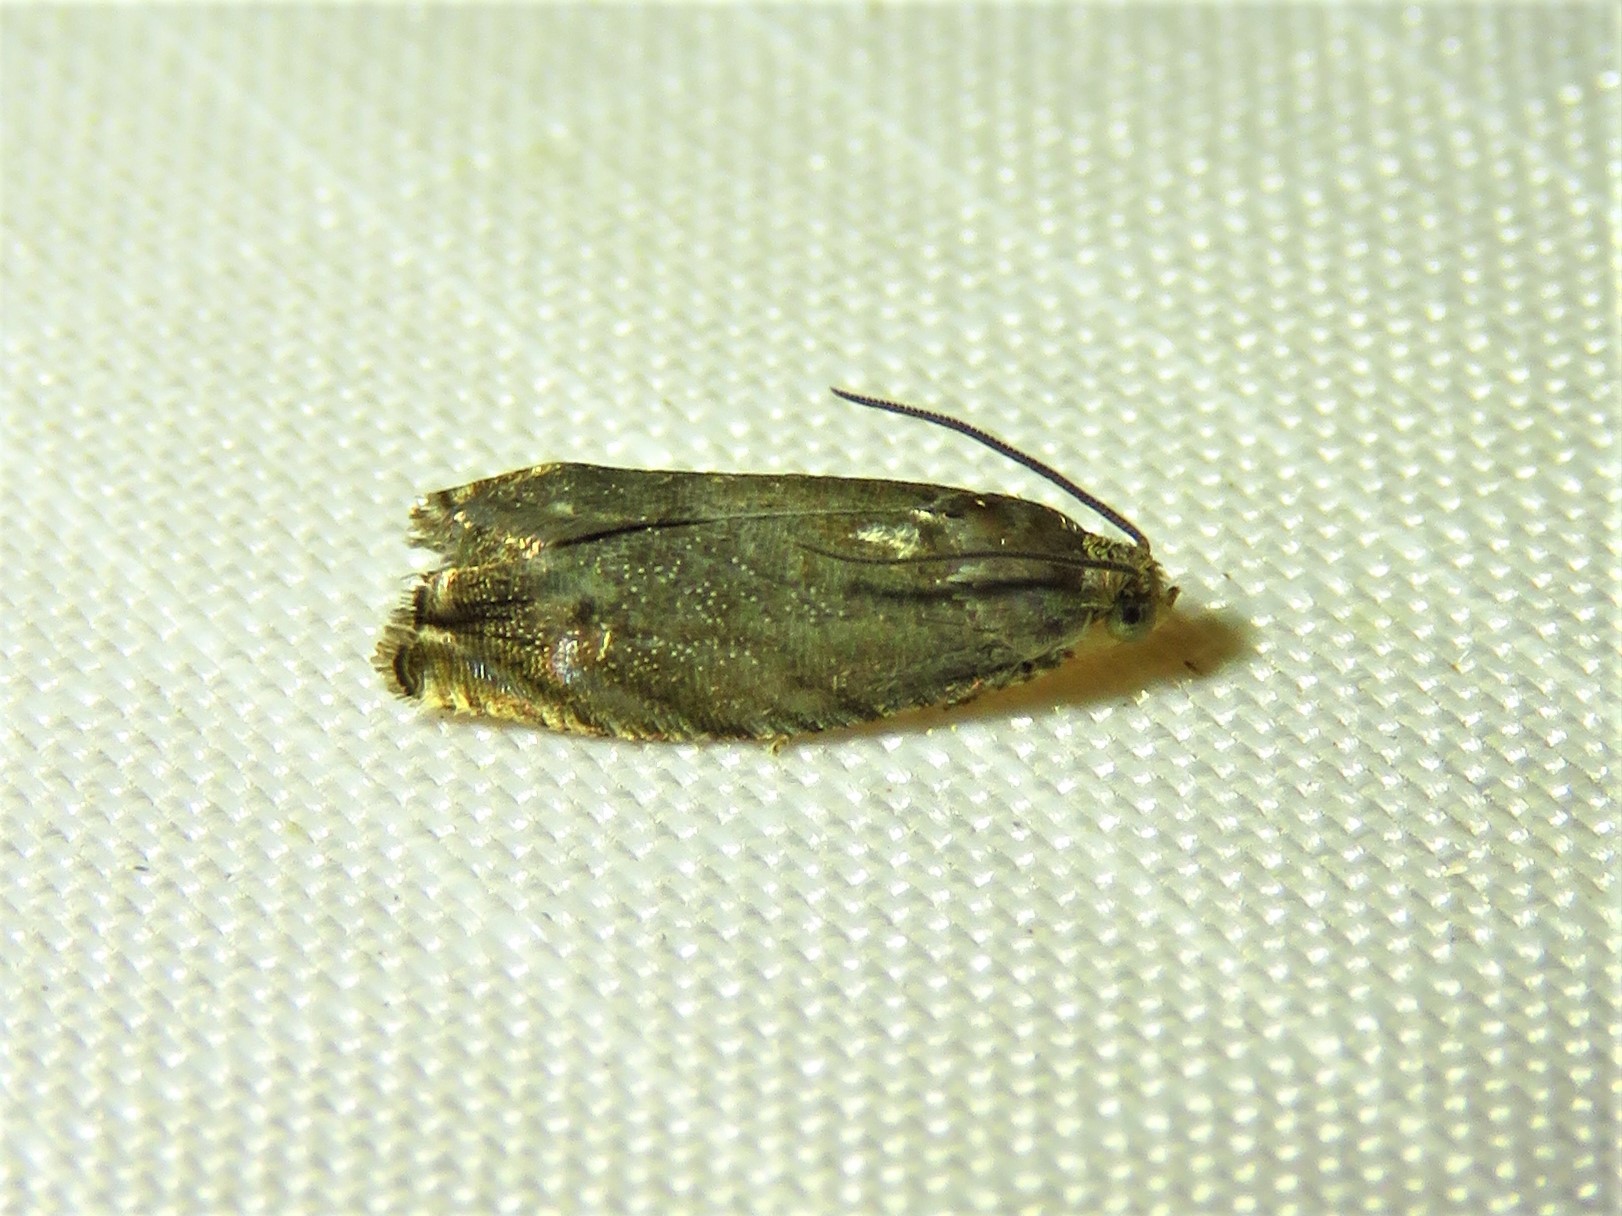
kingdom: Animalia
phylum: Arthropoda
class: Insecta
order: Lepidoptera
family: Tortricidae
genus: Cydia
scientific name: Cydia caryana
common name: Hickory shuckworm moth
